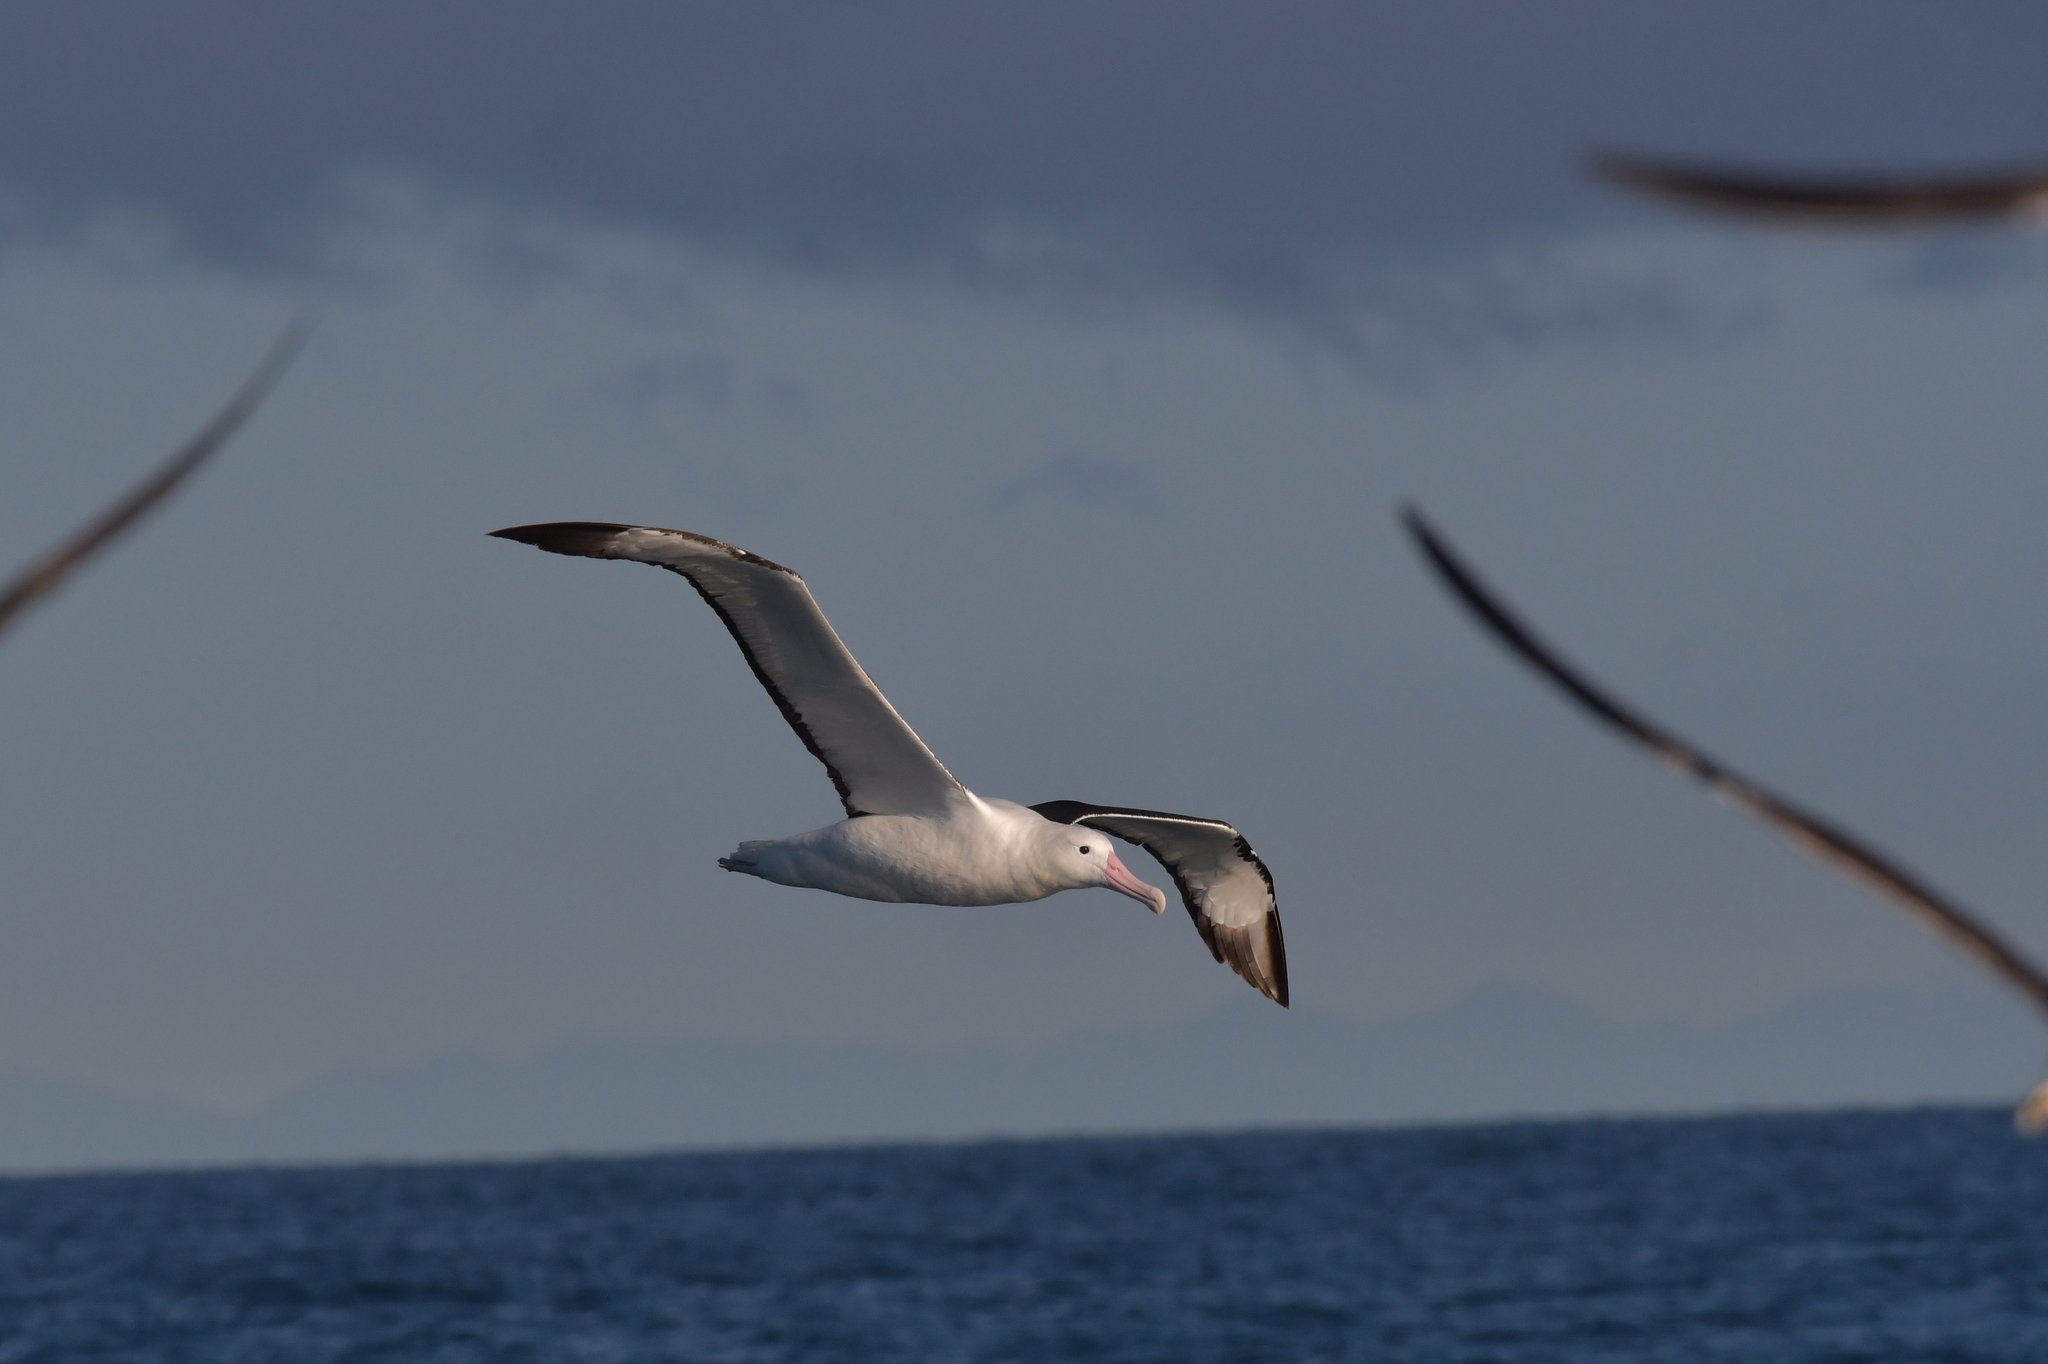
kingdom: Animalia
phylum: Chordata
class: Aves
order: Procellariiformes
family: Diomedeidae
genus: Diomedea
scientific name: Diomedea sanfordi
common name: Northern royal albatross
